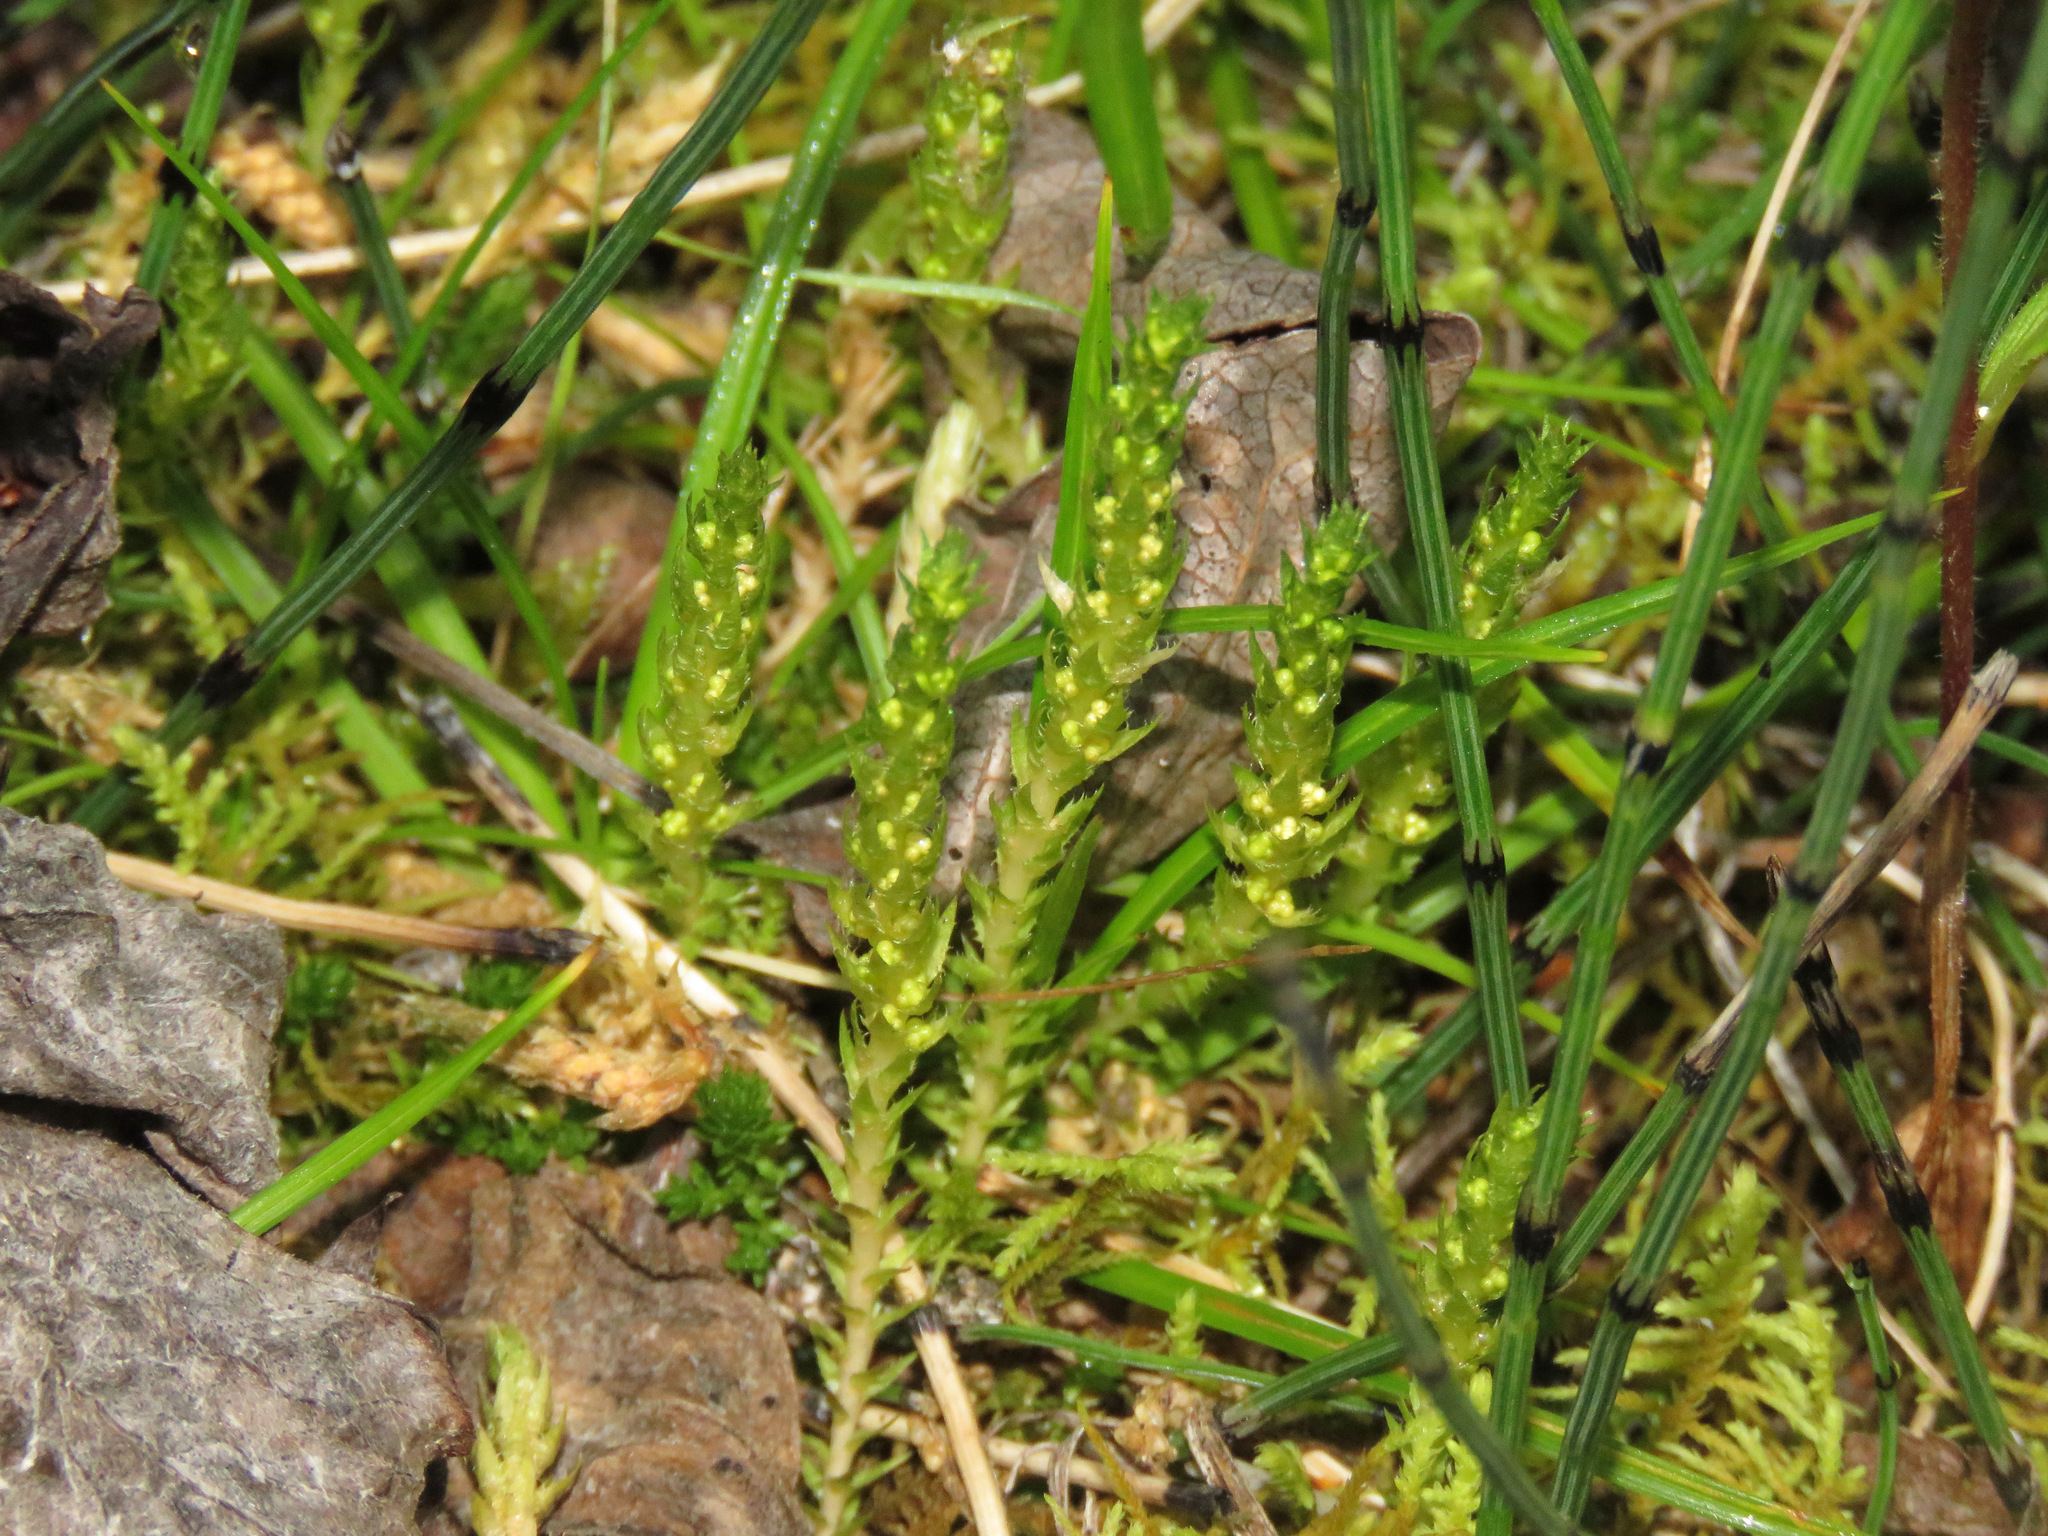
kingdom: Plantae
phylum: Tracheophyta
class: Lycopodiopsida
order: Selaginellales
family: Selaginellaceae
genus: Selaginella
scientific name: Selaginella selaginoides
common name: Prickly mountain-moss
